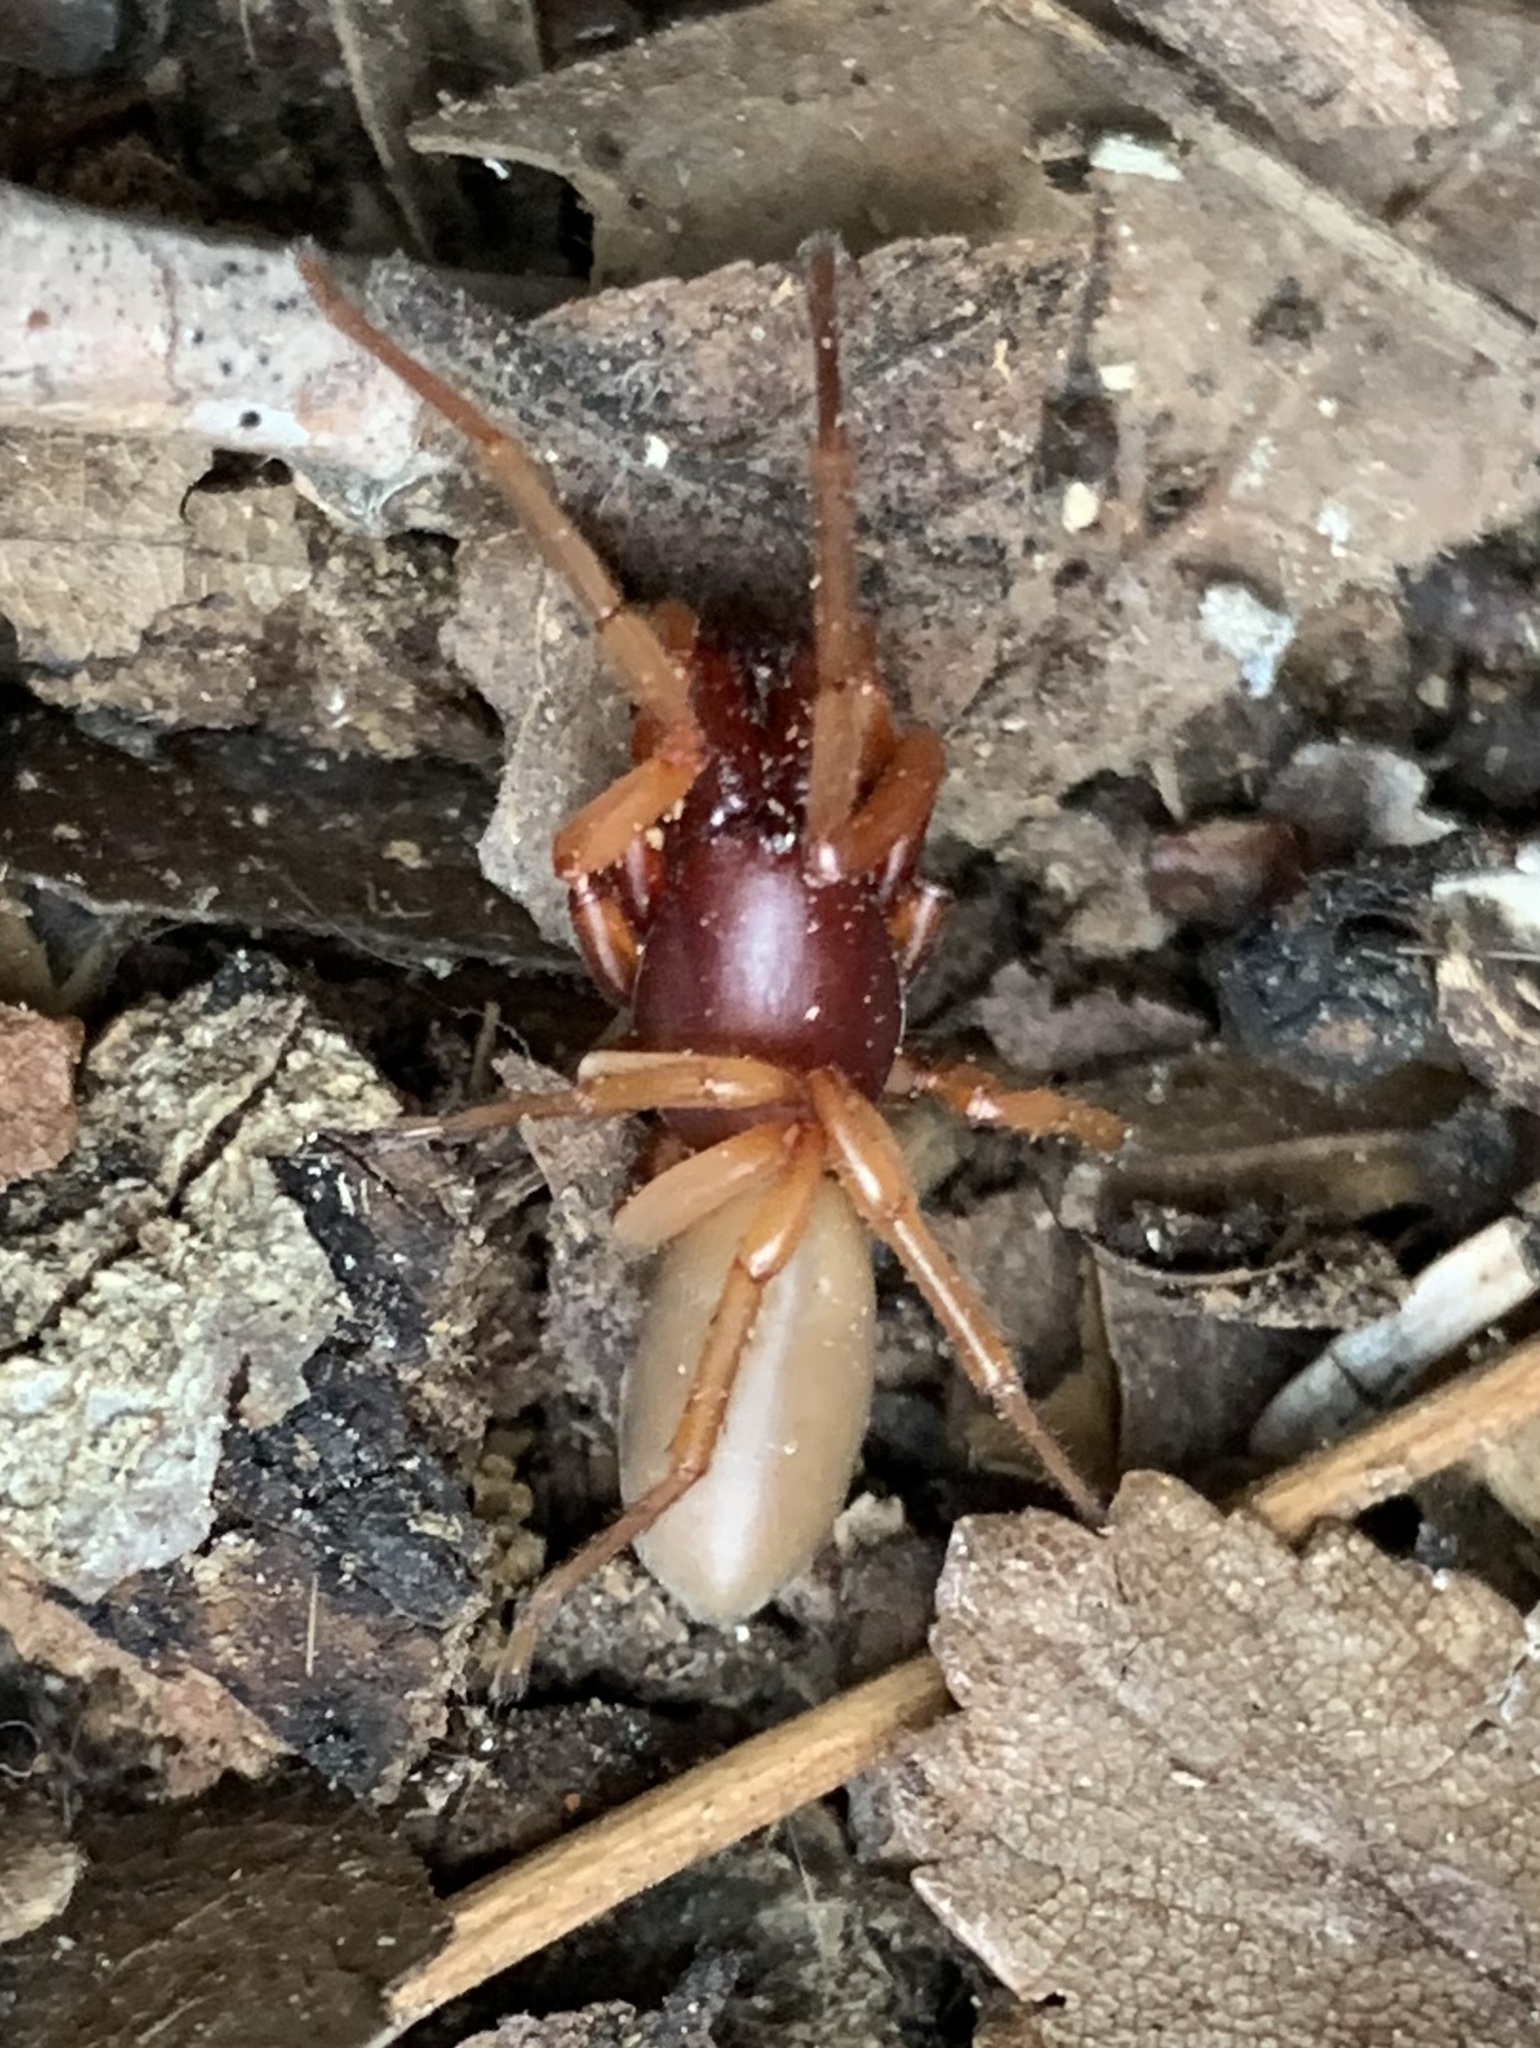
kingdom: Animalia
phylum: Arthropoda
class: Arachnida
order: Araneae
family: Dysderidae
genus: Dysdera
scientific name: Dysdera crocata
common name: Woodlouse spider
